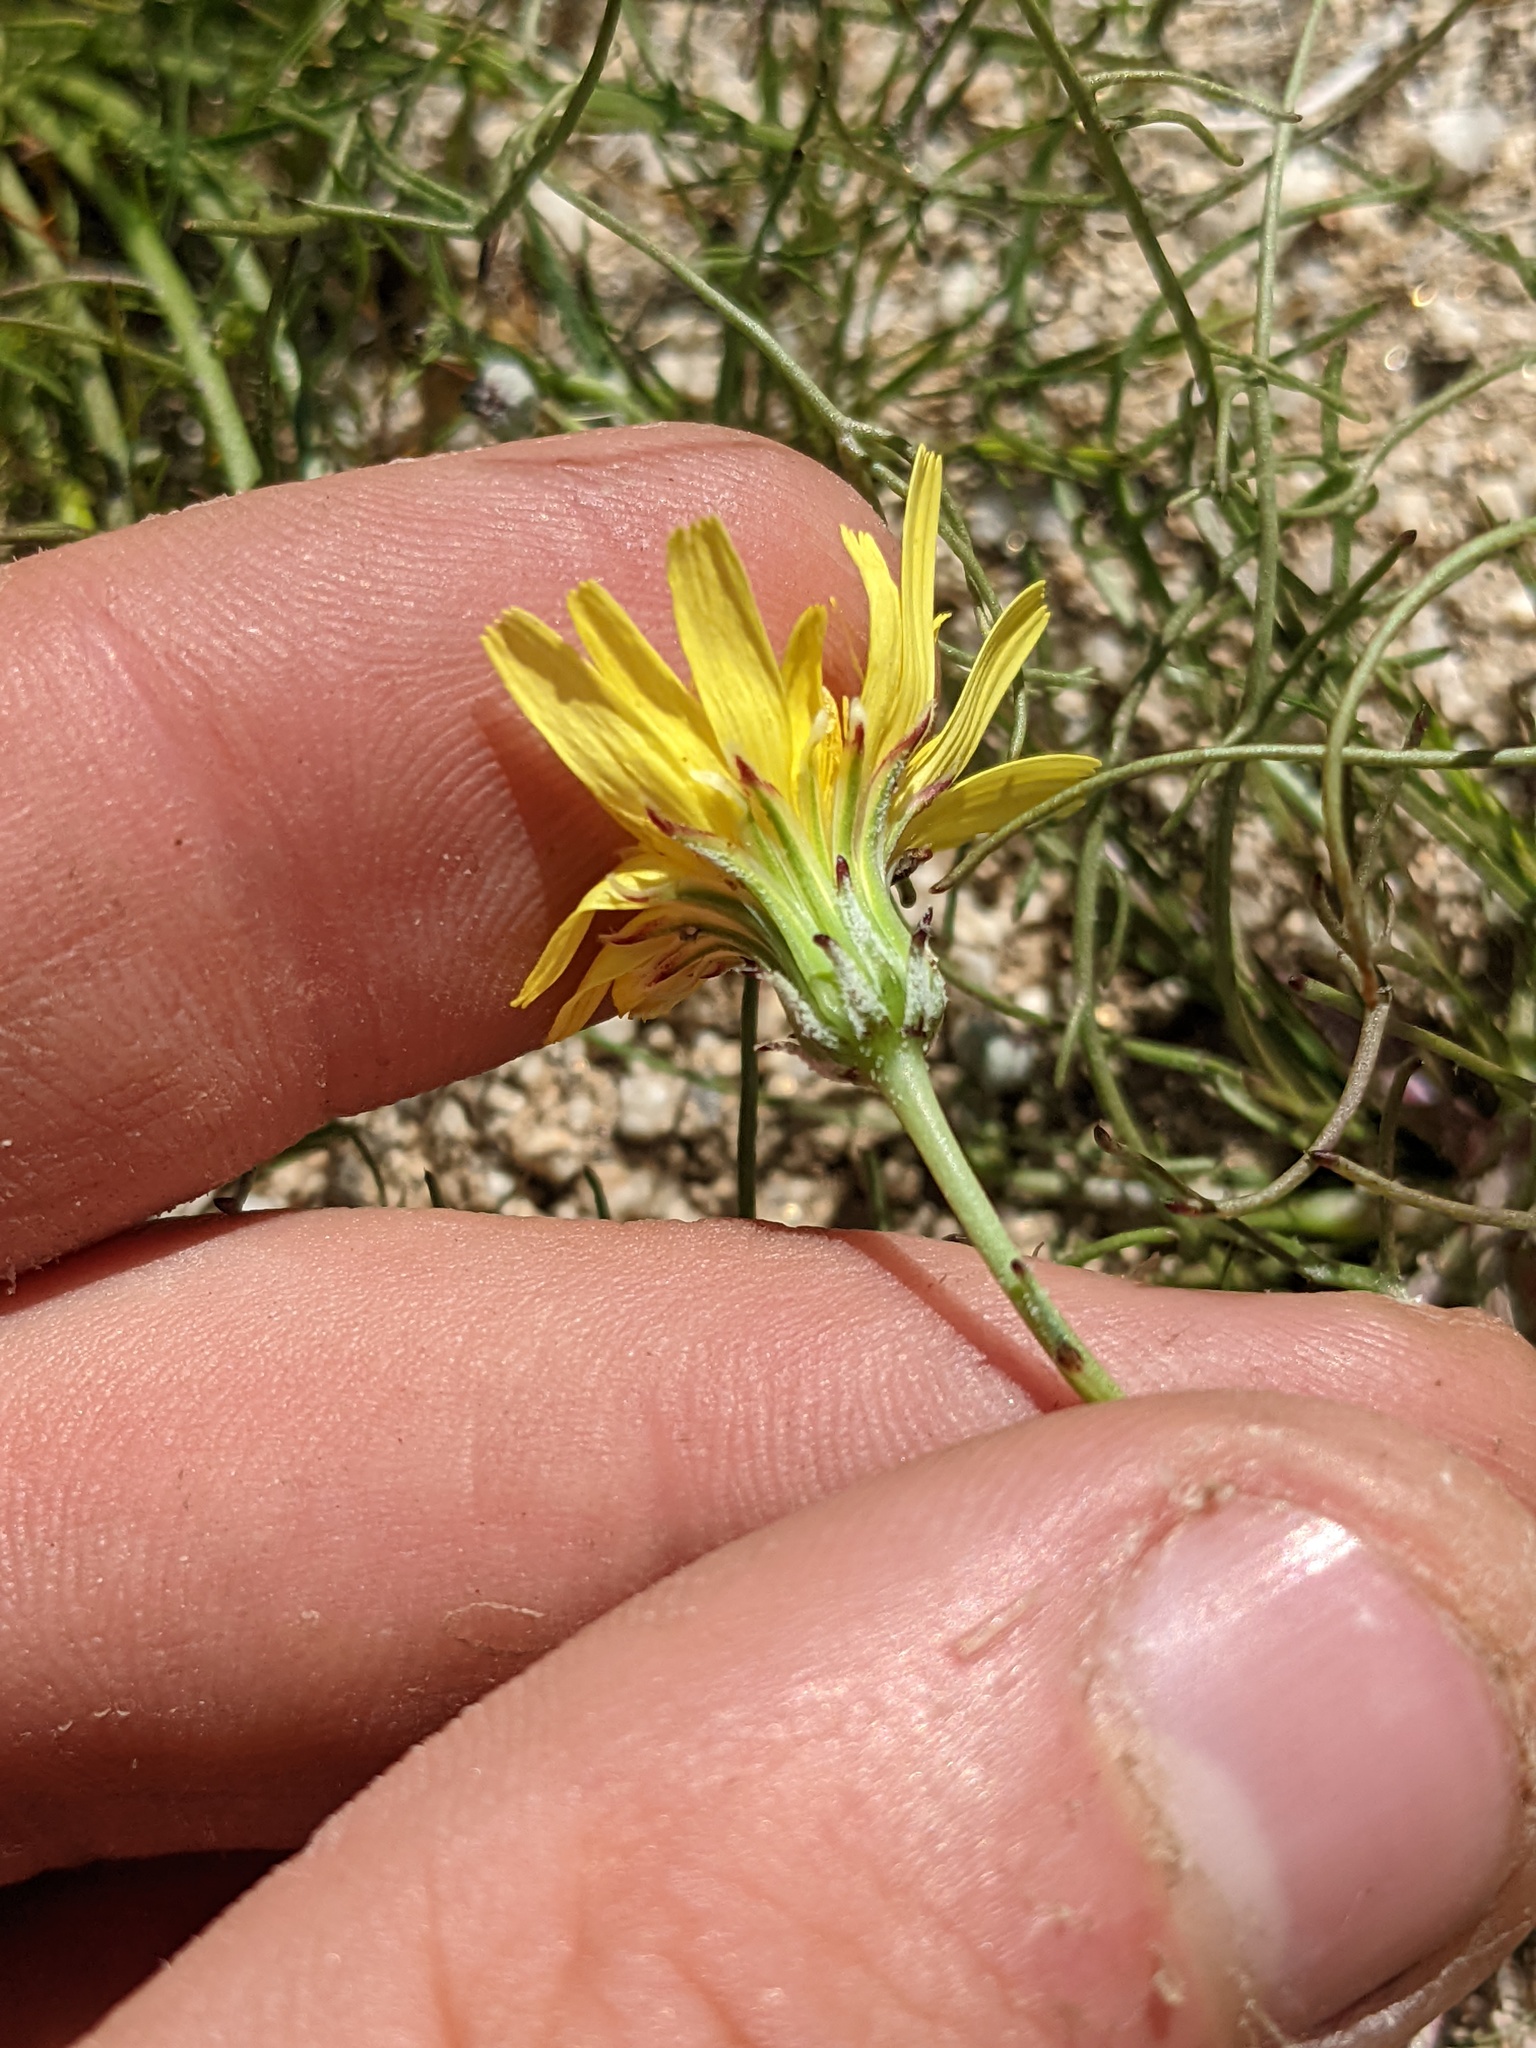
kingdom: Plantae
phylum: Tracheophyta
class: Magnoliopsida
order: Asterales
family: Asteraceae
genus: Malacothrix
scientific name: Malacothrix glabrata
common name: Smooth desert-dandelion
